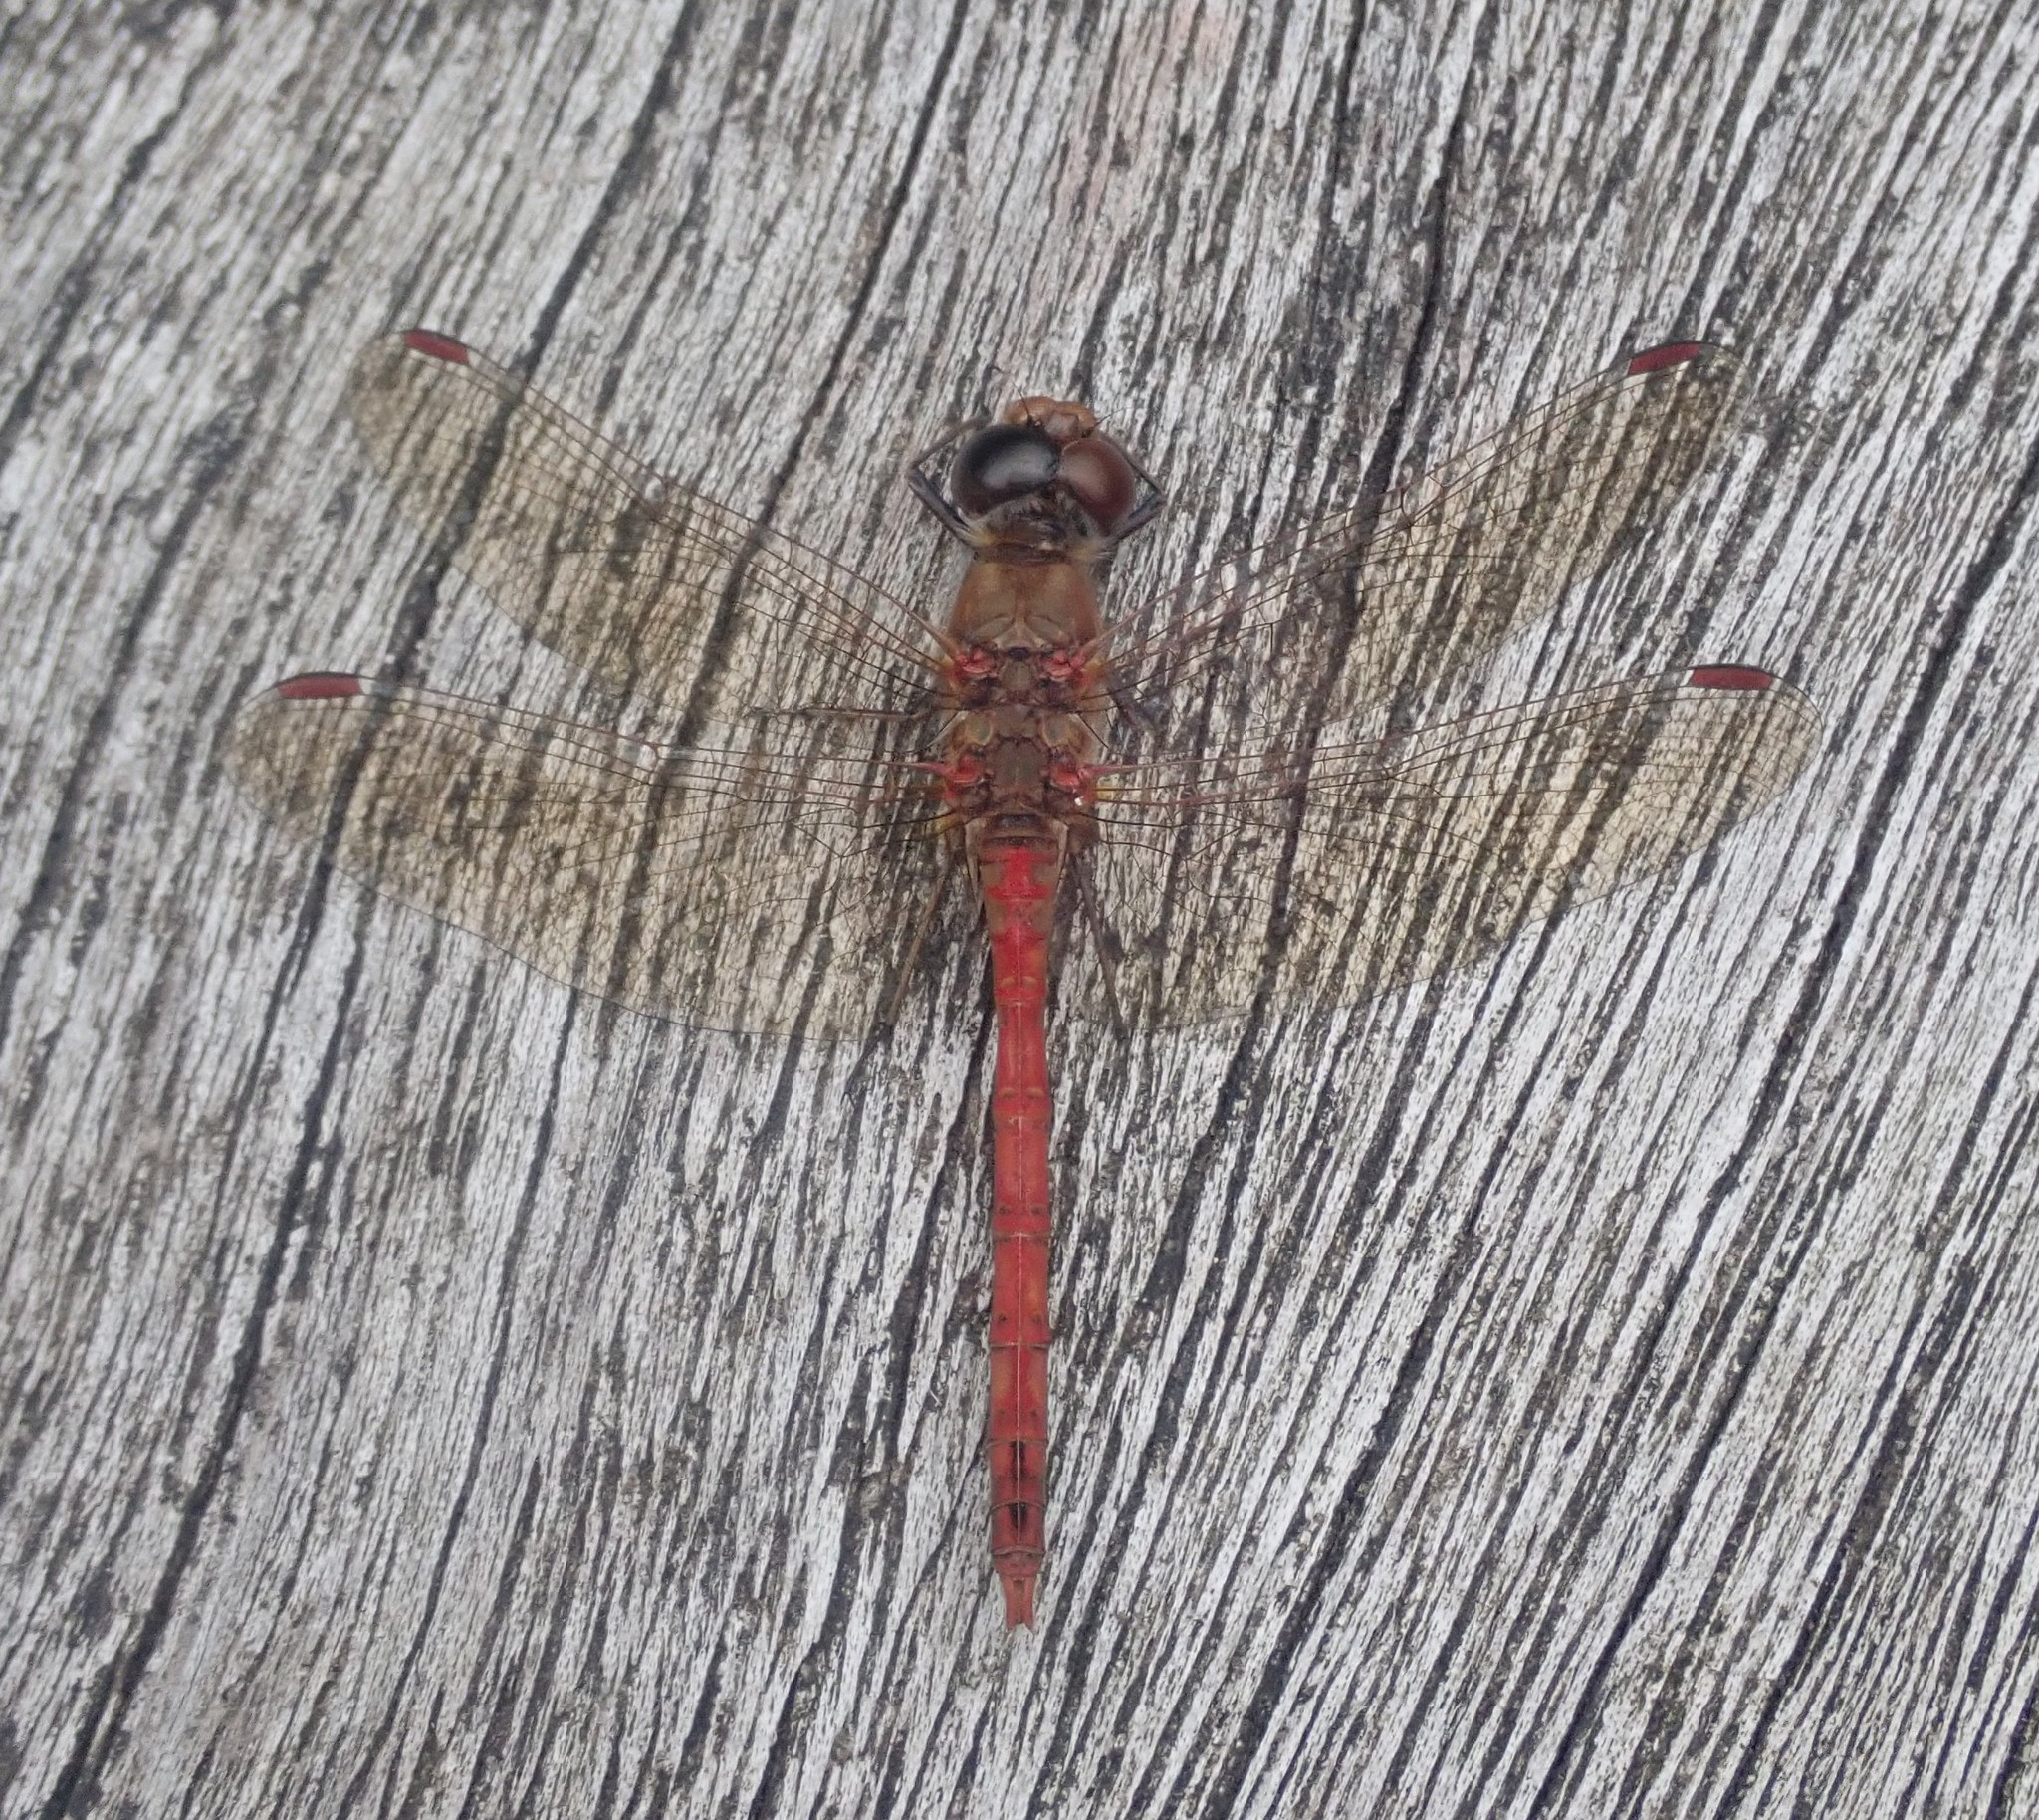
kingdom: Animalia
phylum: Arthropoda
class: Insecta
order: Odonata
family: Libellulidae
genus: Sympetrum
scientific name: Sympetrum striolatum
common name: Common darter
